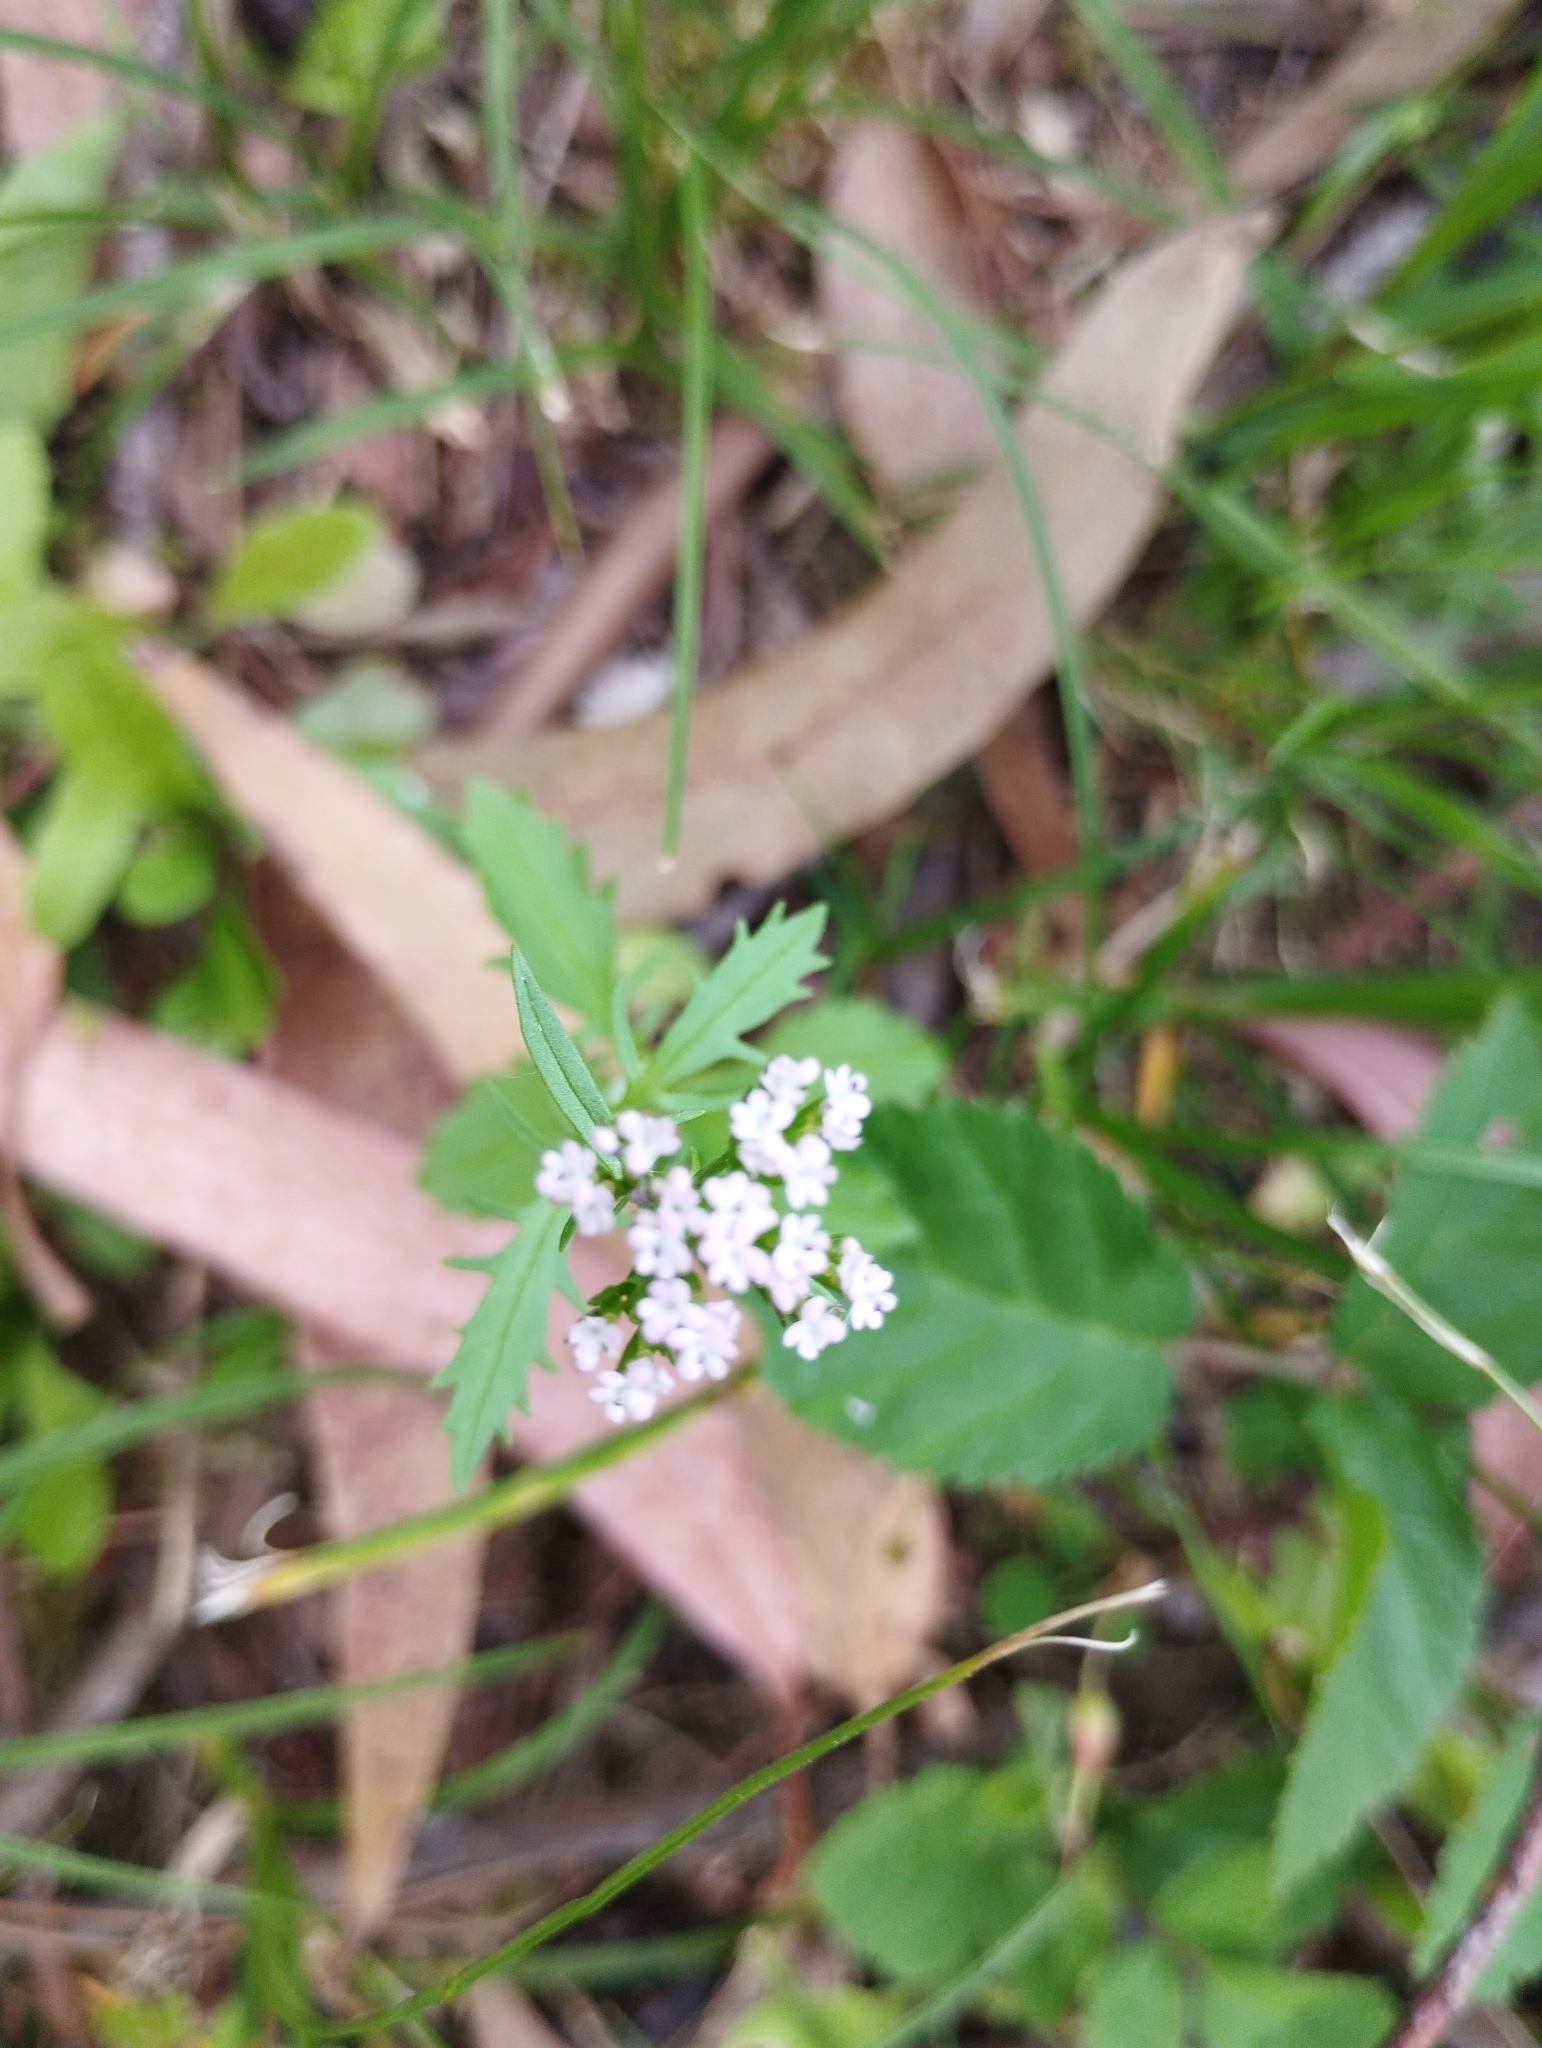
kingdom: Plantae
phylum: Tracheophyta
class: Magnoliopsida
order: Dipsacales
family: Caprifoliaceae
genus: Centranthus
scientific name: Centranthus calcitrapae
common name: Annual valerian
